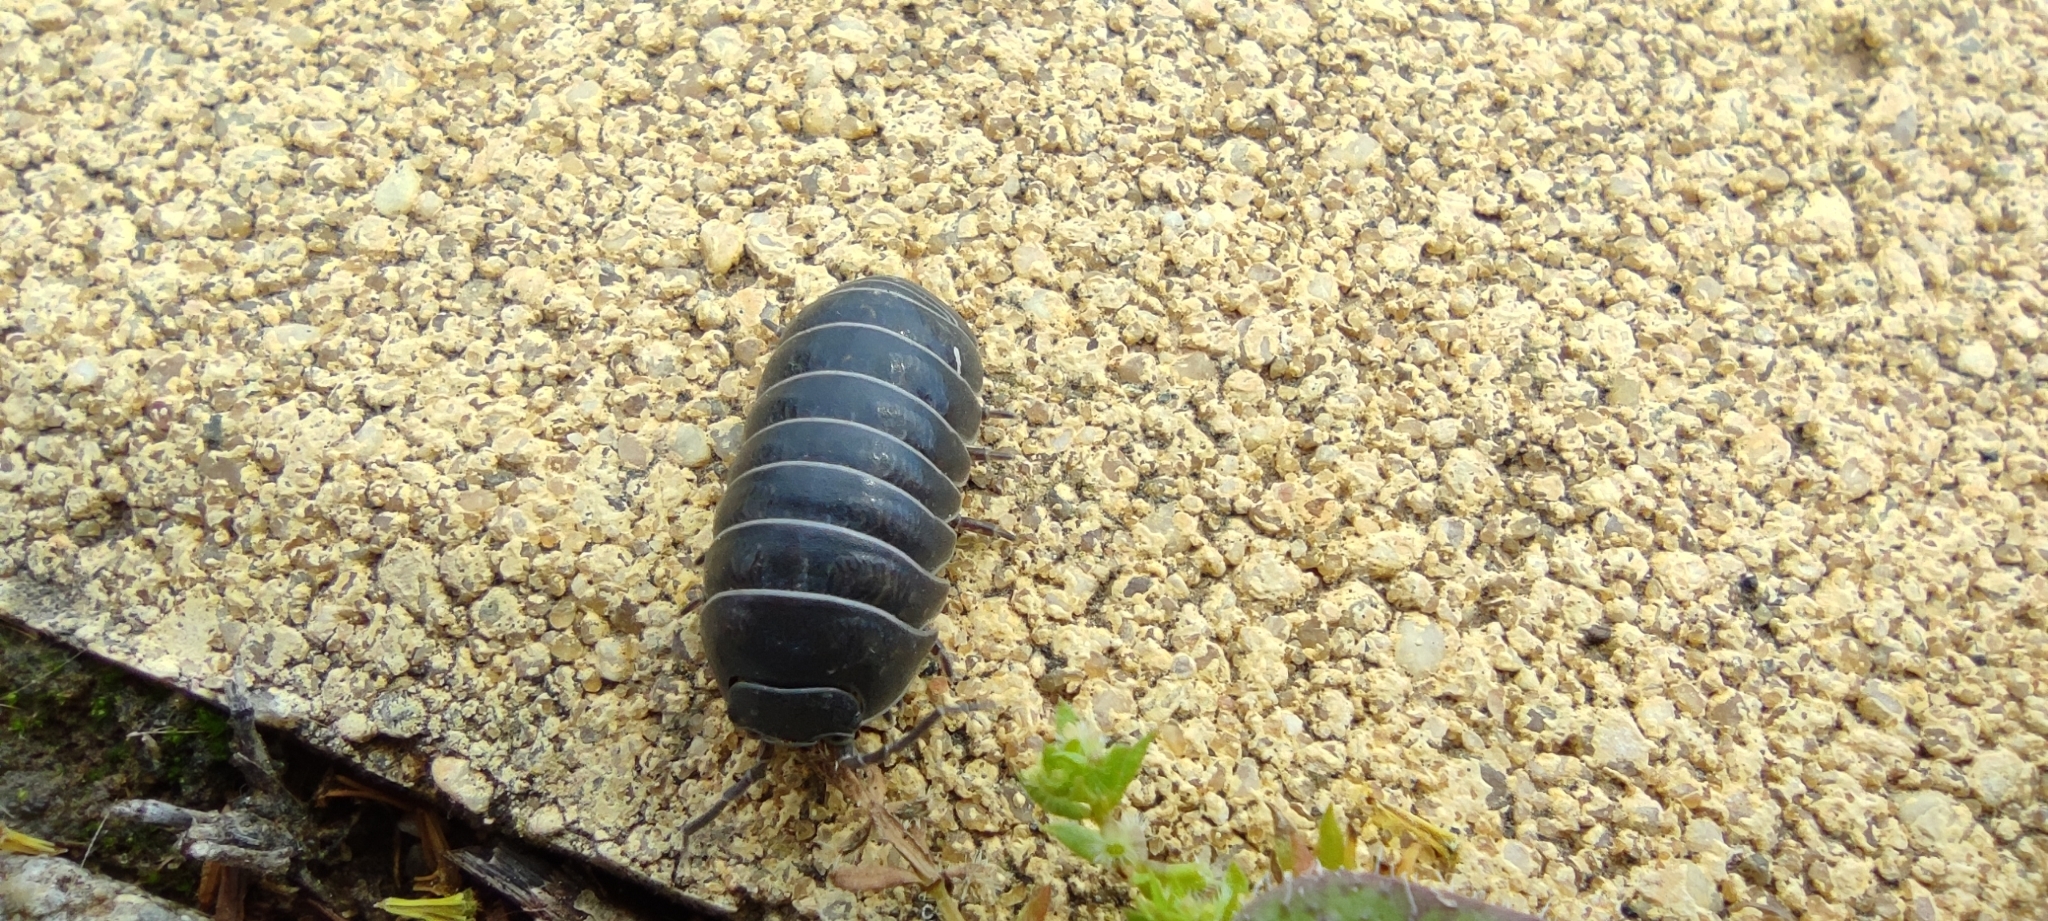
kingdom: Animalia
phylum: Arthropoda
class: Malacostraca
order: Isopoda
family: Armadillidiidae
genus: Armadillidium
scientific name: Armadillidium vulgare
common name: Common pill woodlouse
